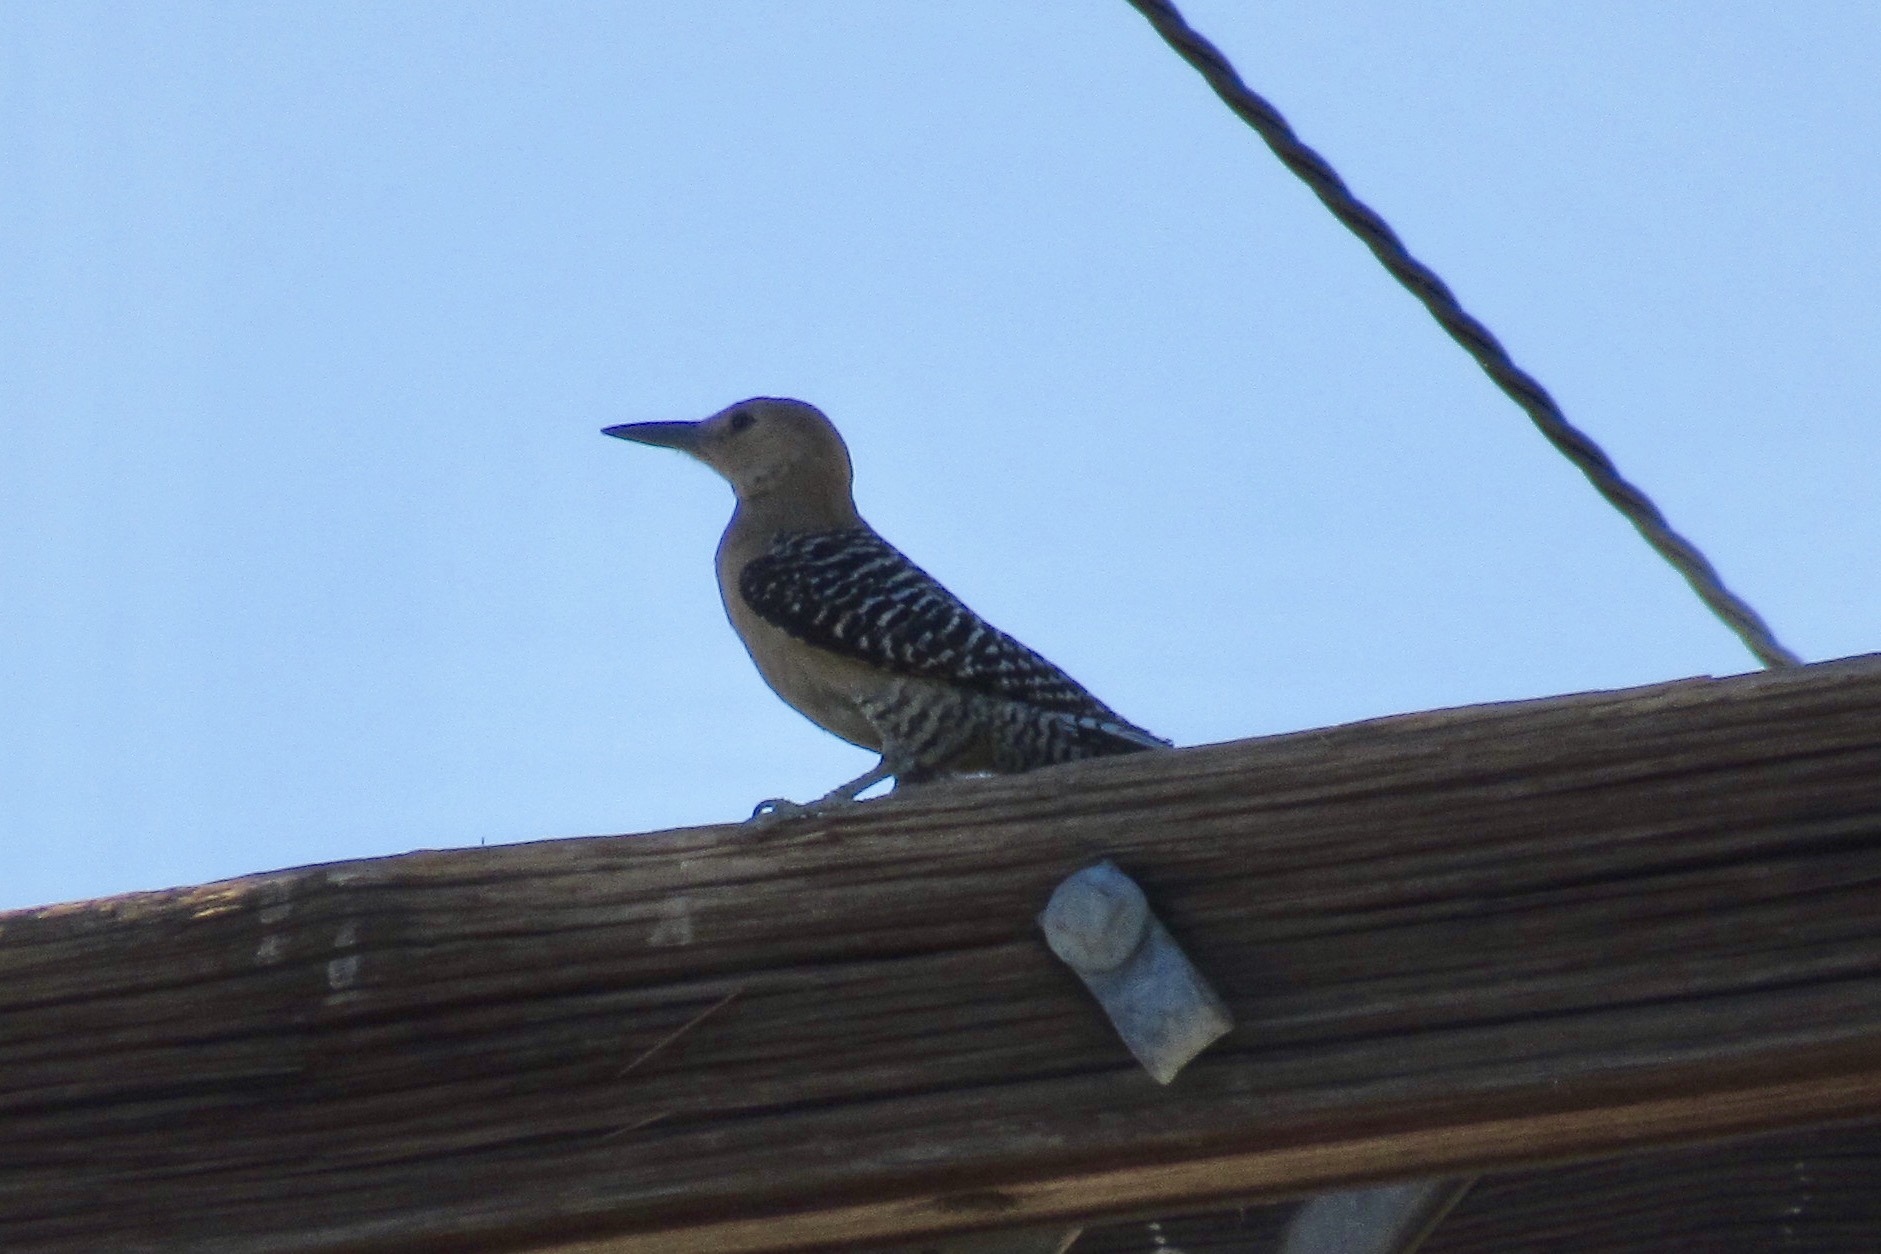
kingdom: Animalia
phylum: Chordata
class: Aves
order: Piciformes
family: Picidae
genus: Melanerpes
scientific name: Melanerpes uropygialis
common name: Gila woodpecker
